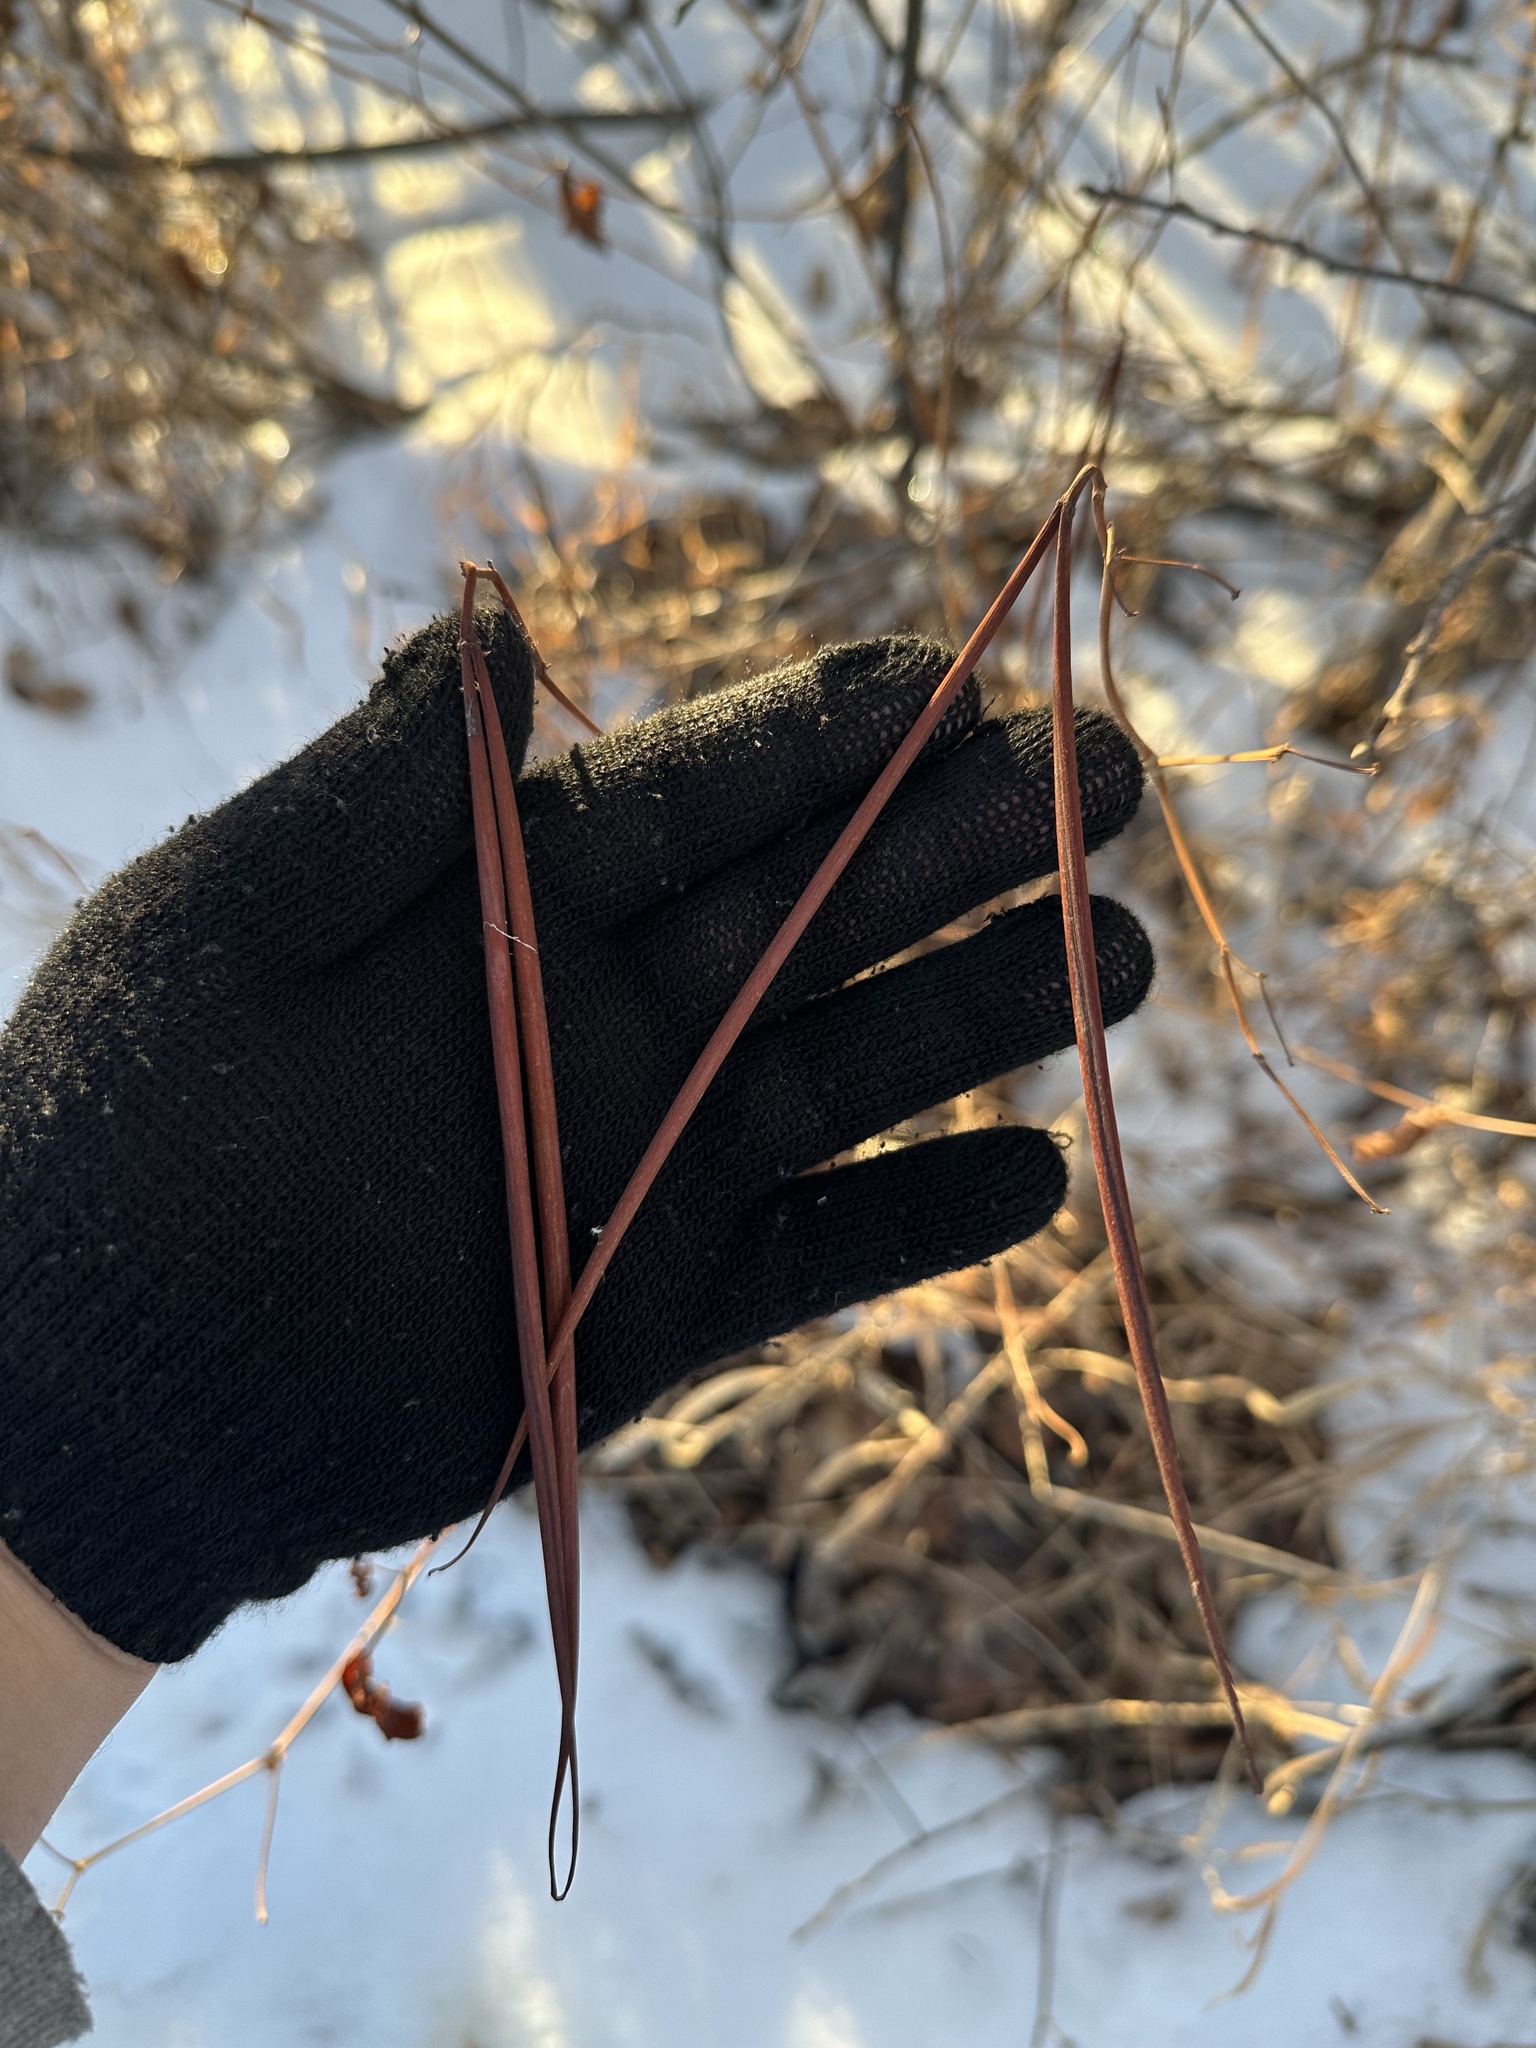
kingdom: Plantae
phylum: Tracheophyta
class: Magnoliopsida
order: Gentianales
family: Apocynaceae
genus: Apocynum
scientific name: Apocynum androsaemifolium
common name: Spreading dogbane
